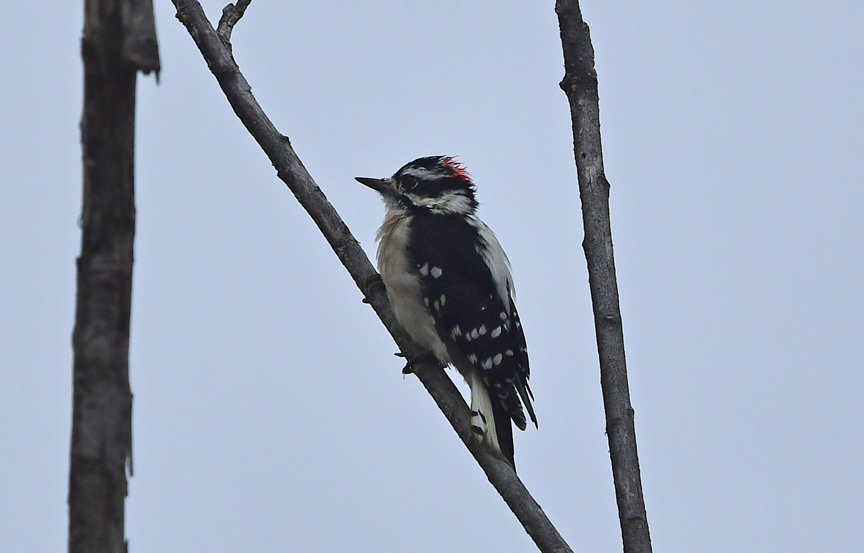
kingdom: Animalia
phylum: Chordata
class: Aves
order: Piciformes
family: Picidae
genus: Dryobates
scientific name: Dryobates pubescens
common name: Downy woodpecker
